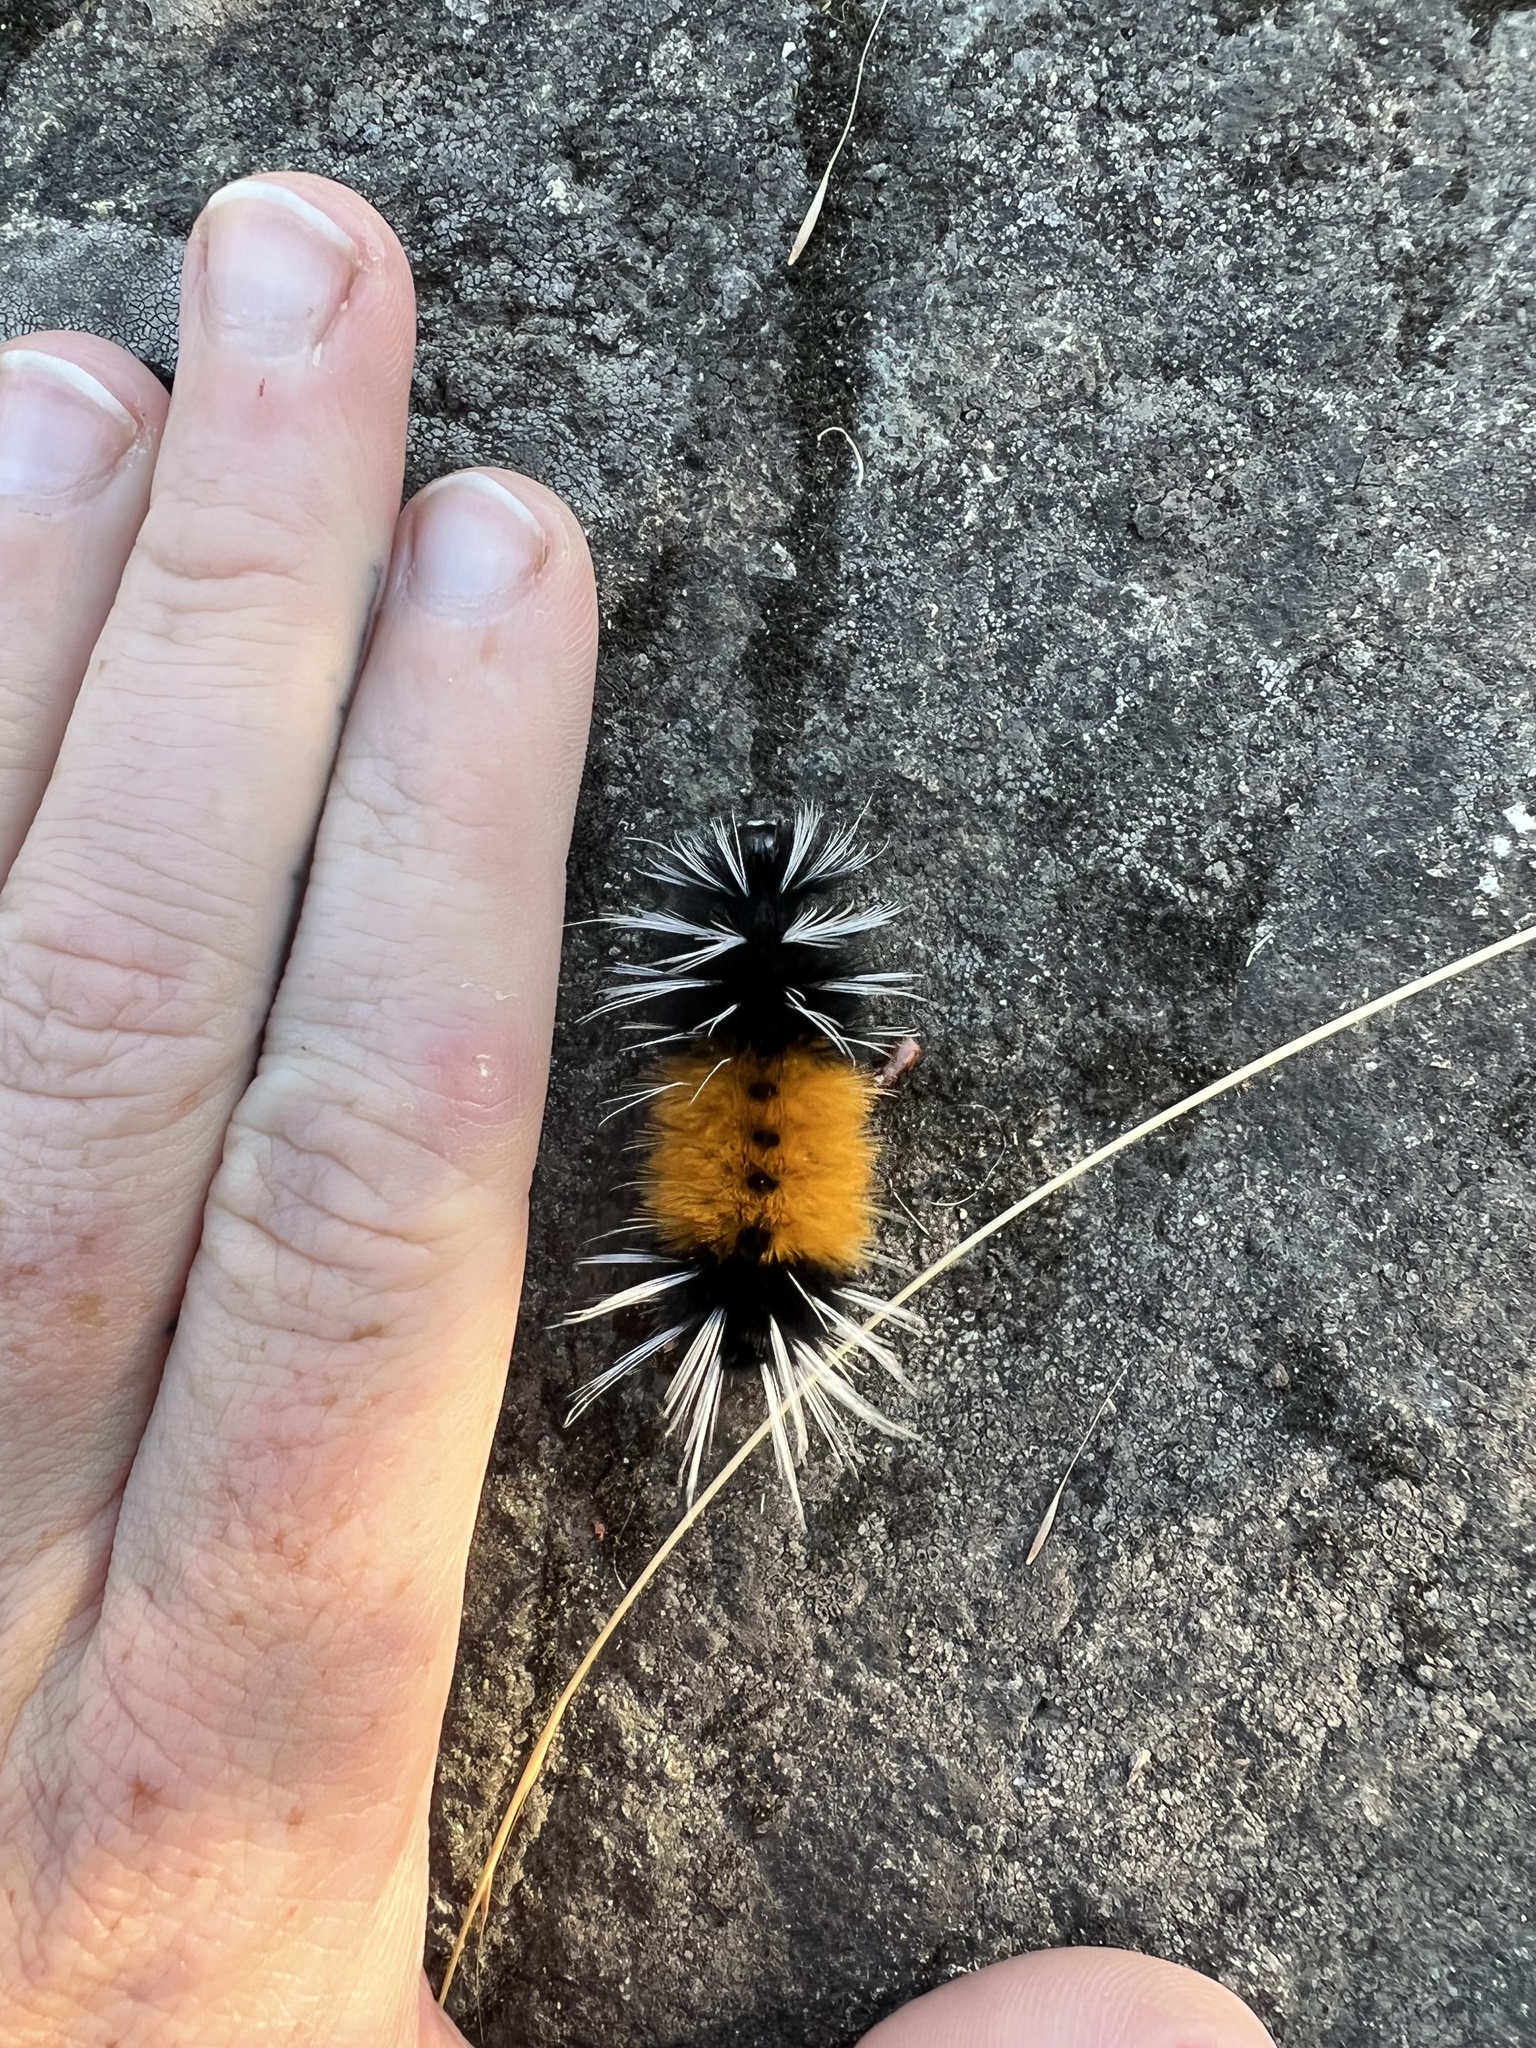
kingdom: Animalia
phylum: Arthropoda
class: Insecta
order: Lepidoptera
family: Erebidae
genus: Lophocampa
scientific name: Lophocampa maculata
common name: Spotted tussock moth
